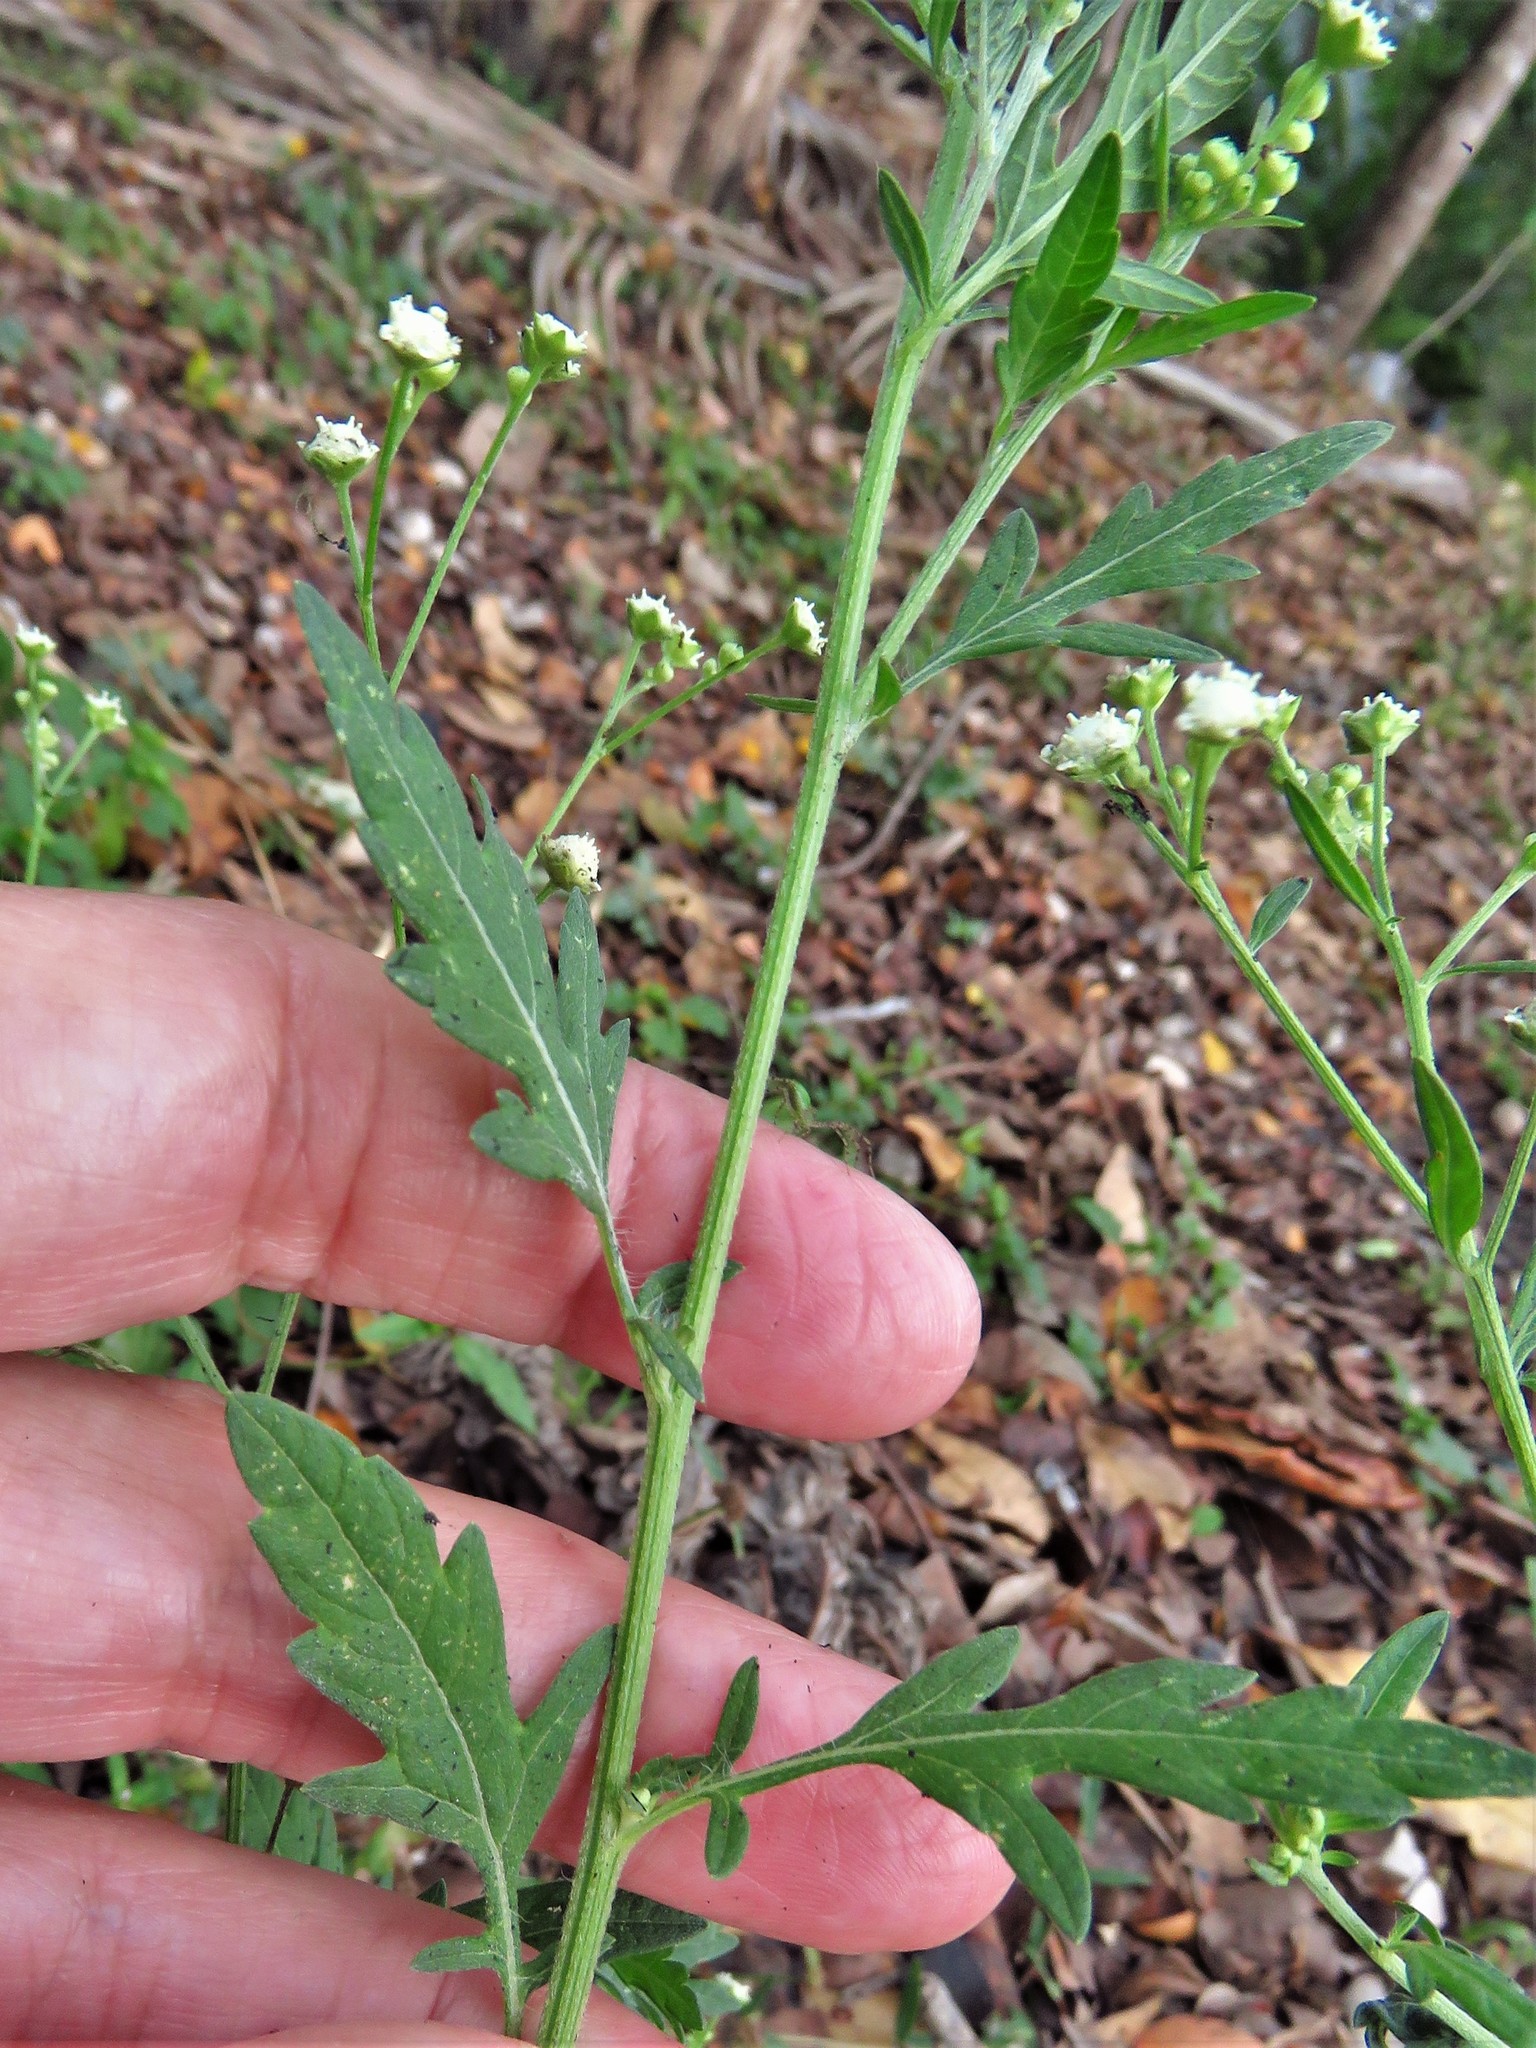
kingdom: Plantae
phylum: Tracheophyta
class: Magnoliopsida
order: Asterales
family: Asteraceae
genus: Parthenium
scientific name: Parthenium hysterophorus
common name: Santa maria feverfew
